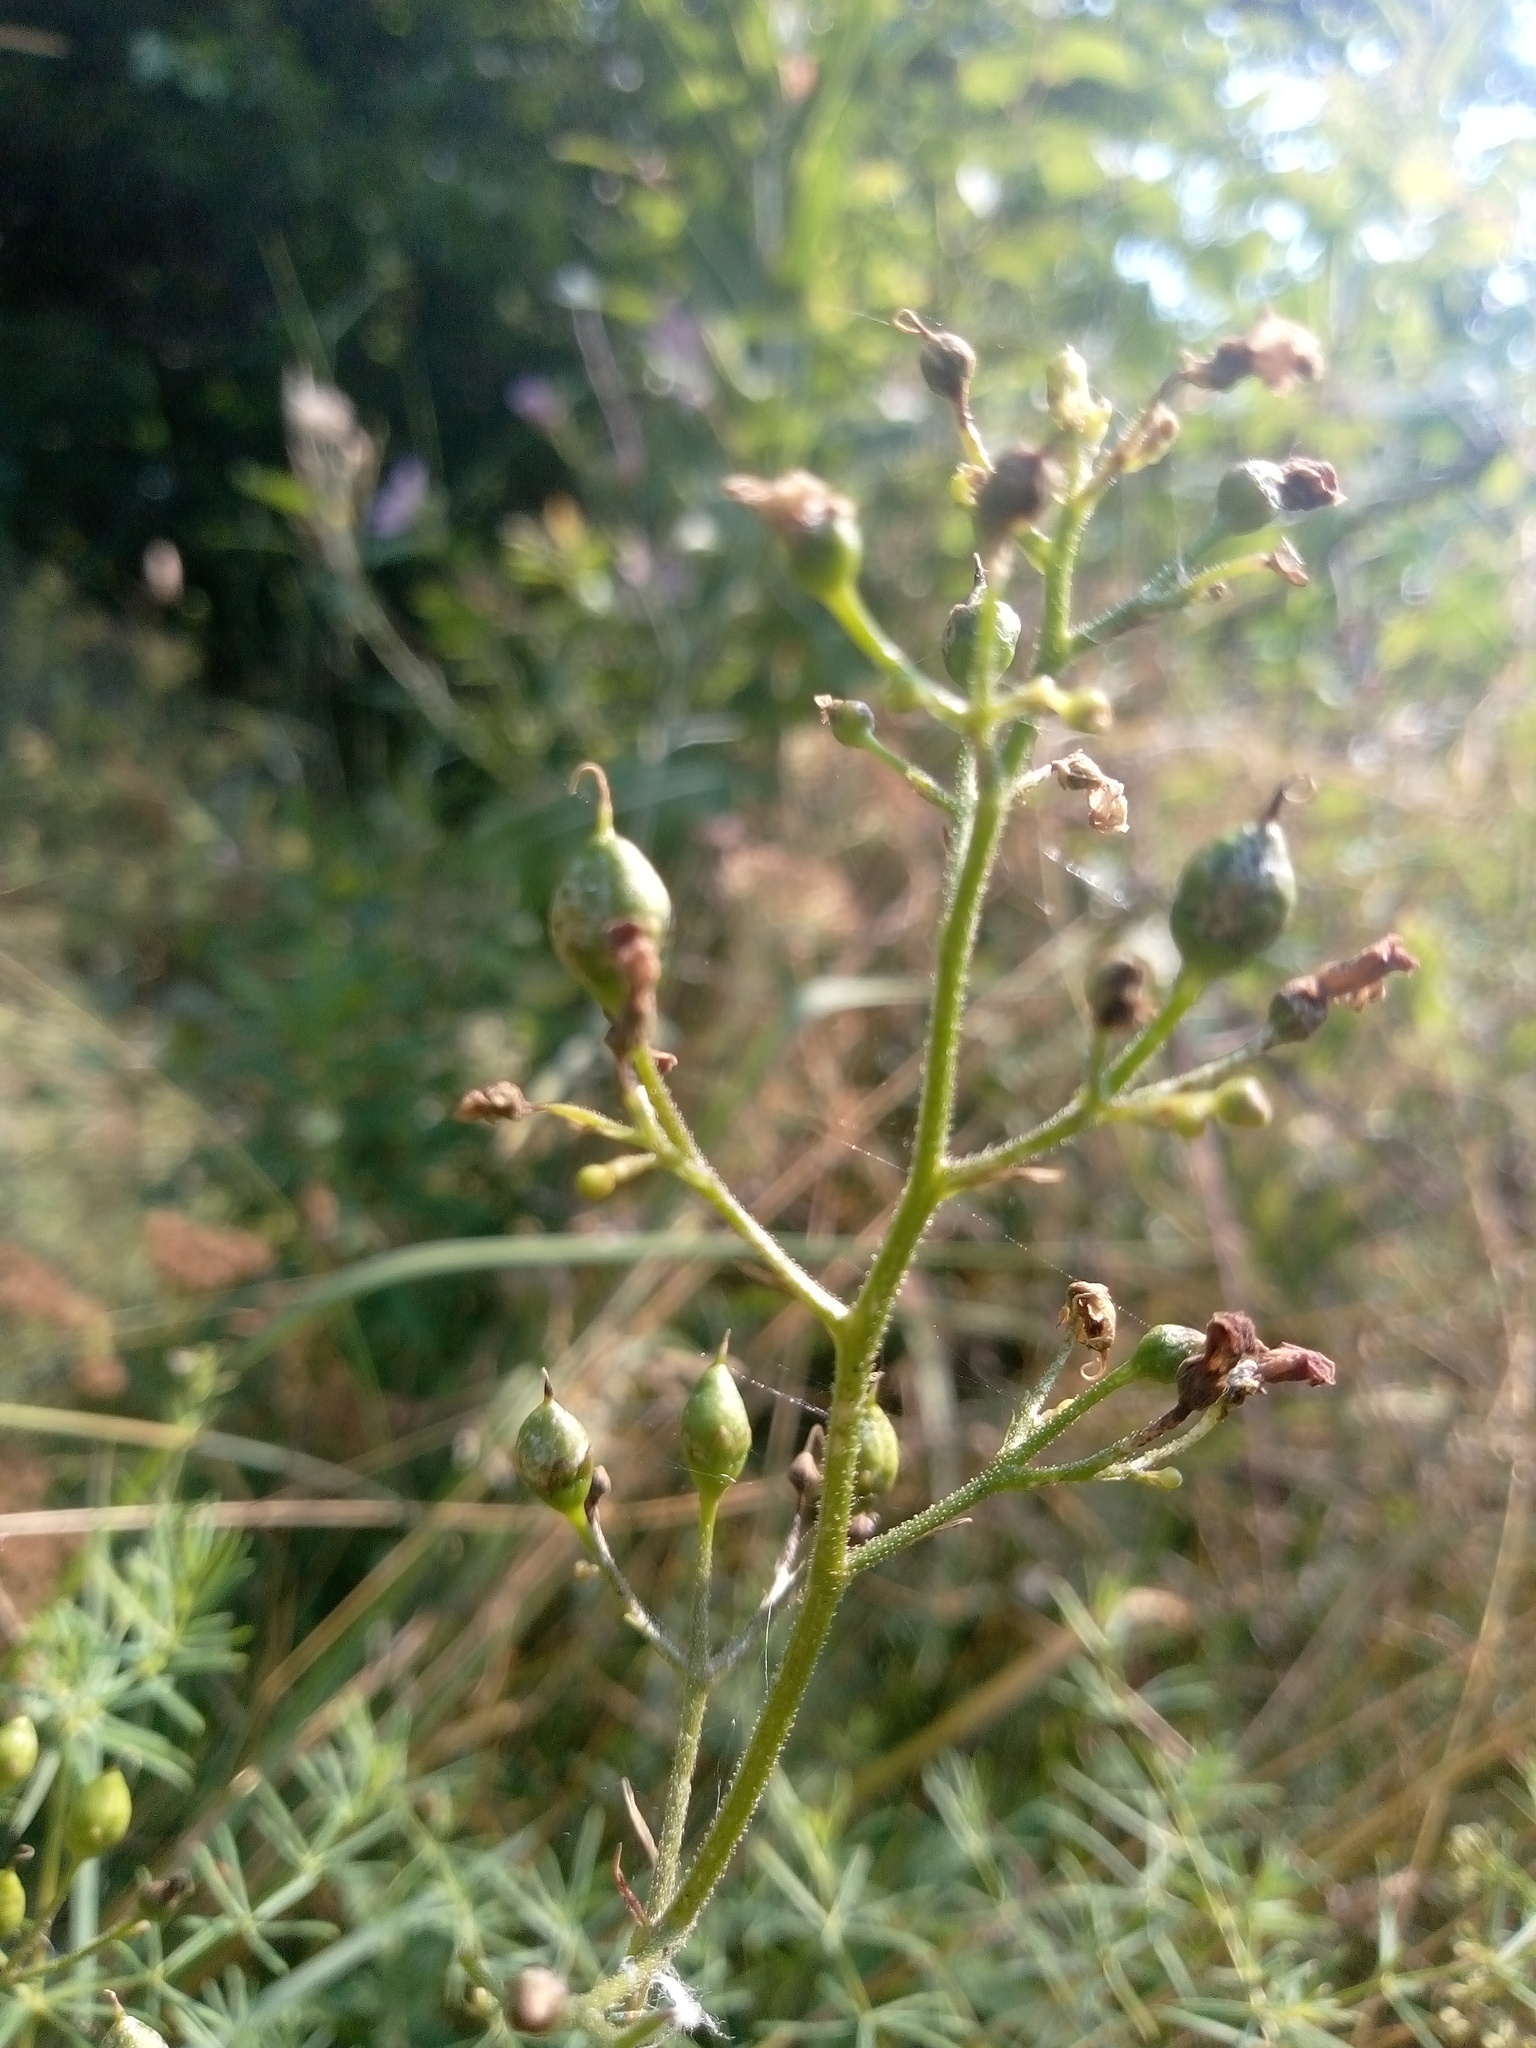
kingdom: Plantae
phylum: Tracheophyta
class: Magnoliopsida
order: Lamiales
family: Scrophulariaceae
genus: Scrophularia
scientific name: Scrophularia nodosa
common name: Common figwort
